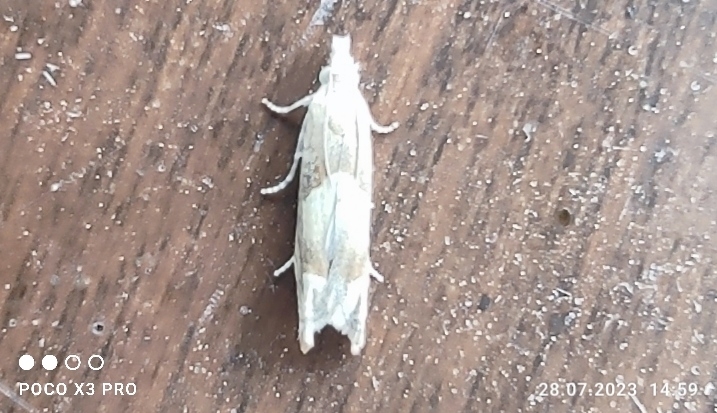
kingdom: Animalia
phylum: Arthropoda
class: Insecta
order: Lepidoptera
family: Tortricidae
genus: Eucosma
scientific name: Eucosma conterminana
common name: Pale lettuce bell
